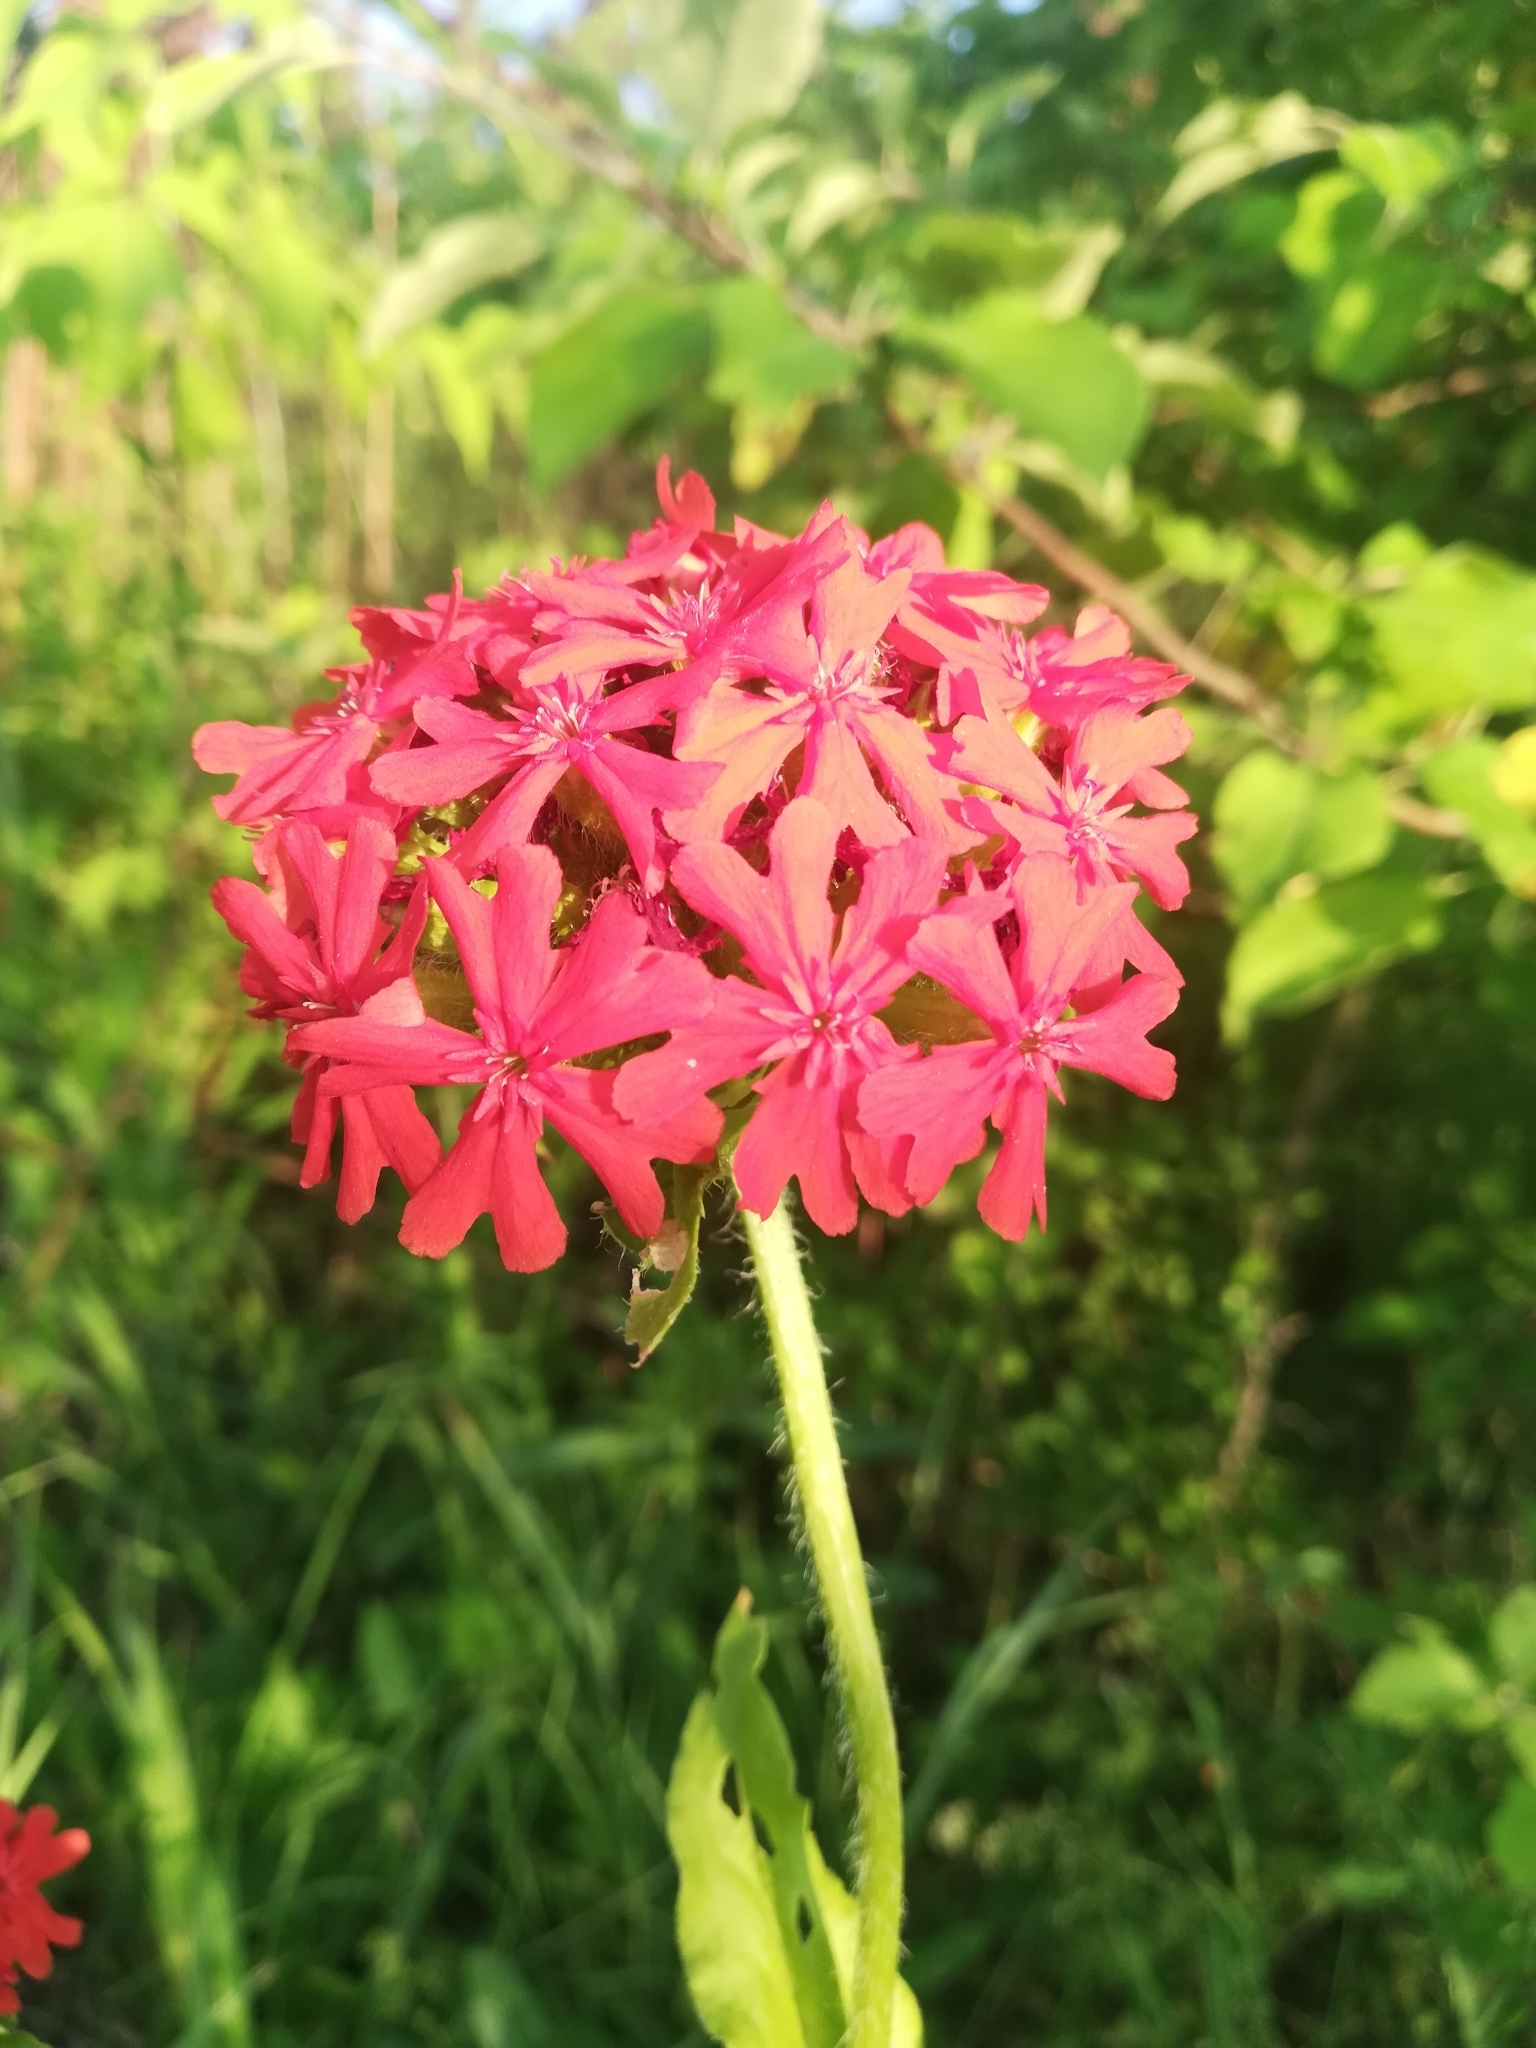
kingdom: Plantae
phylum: Tracheophyta
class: Magnoliopsida
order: Caryophyllales
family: Caryophyllaceae
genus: Silene
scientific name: Silene chalcedonica
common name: Maltese-cross
